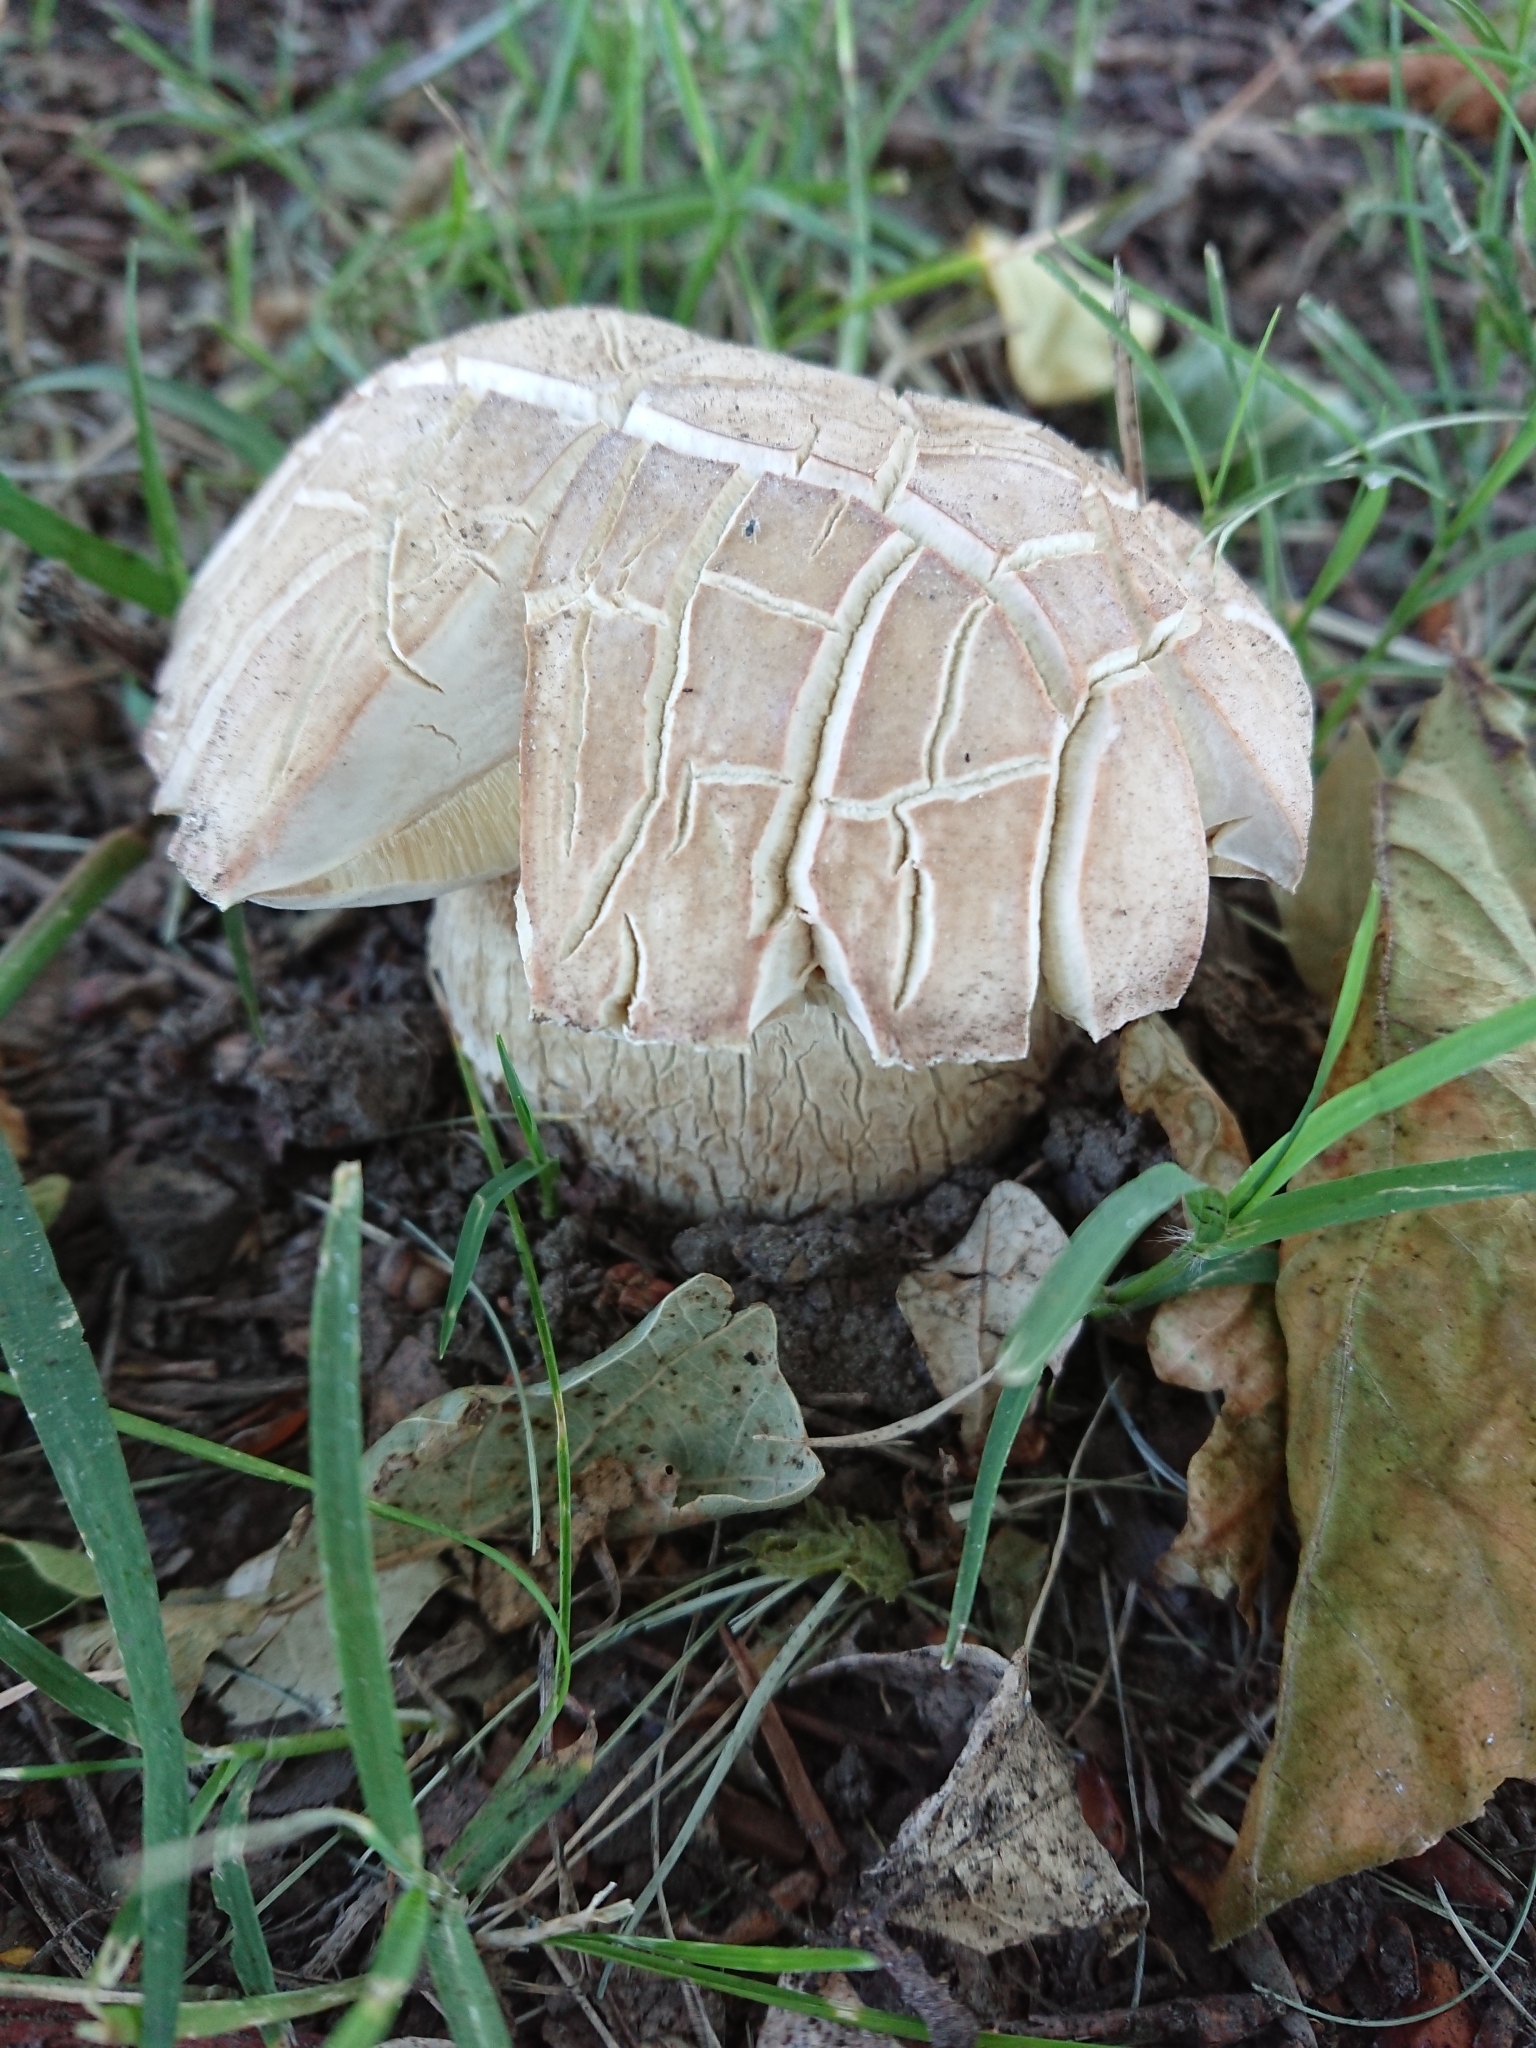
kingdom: Fungi
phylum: Basidiomycota
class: Agaricomycetes
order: Boletales
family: Boletaceae
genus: Boletus
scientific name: Boletus edulis
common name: Cep
